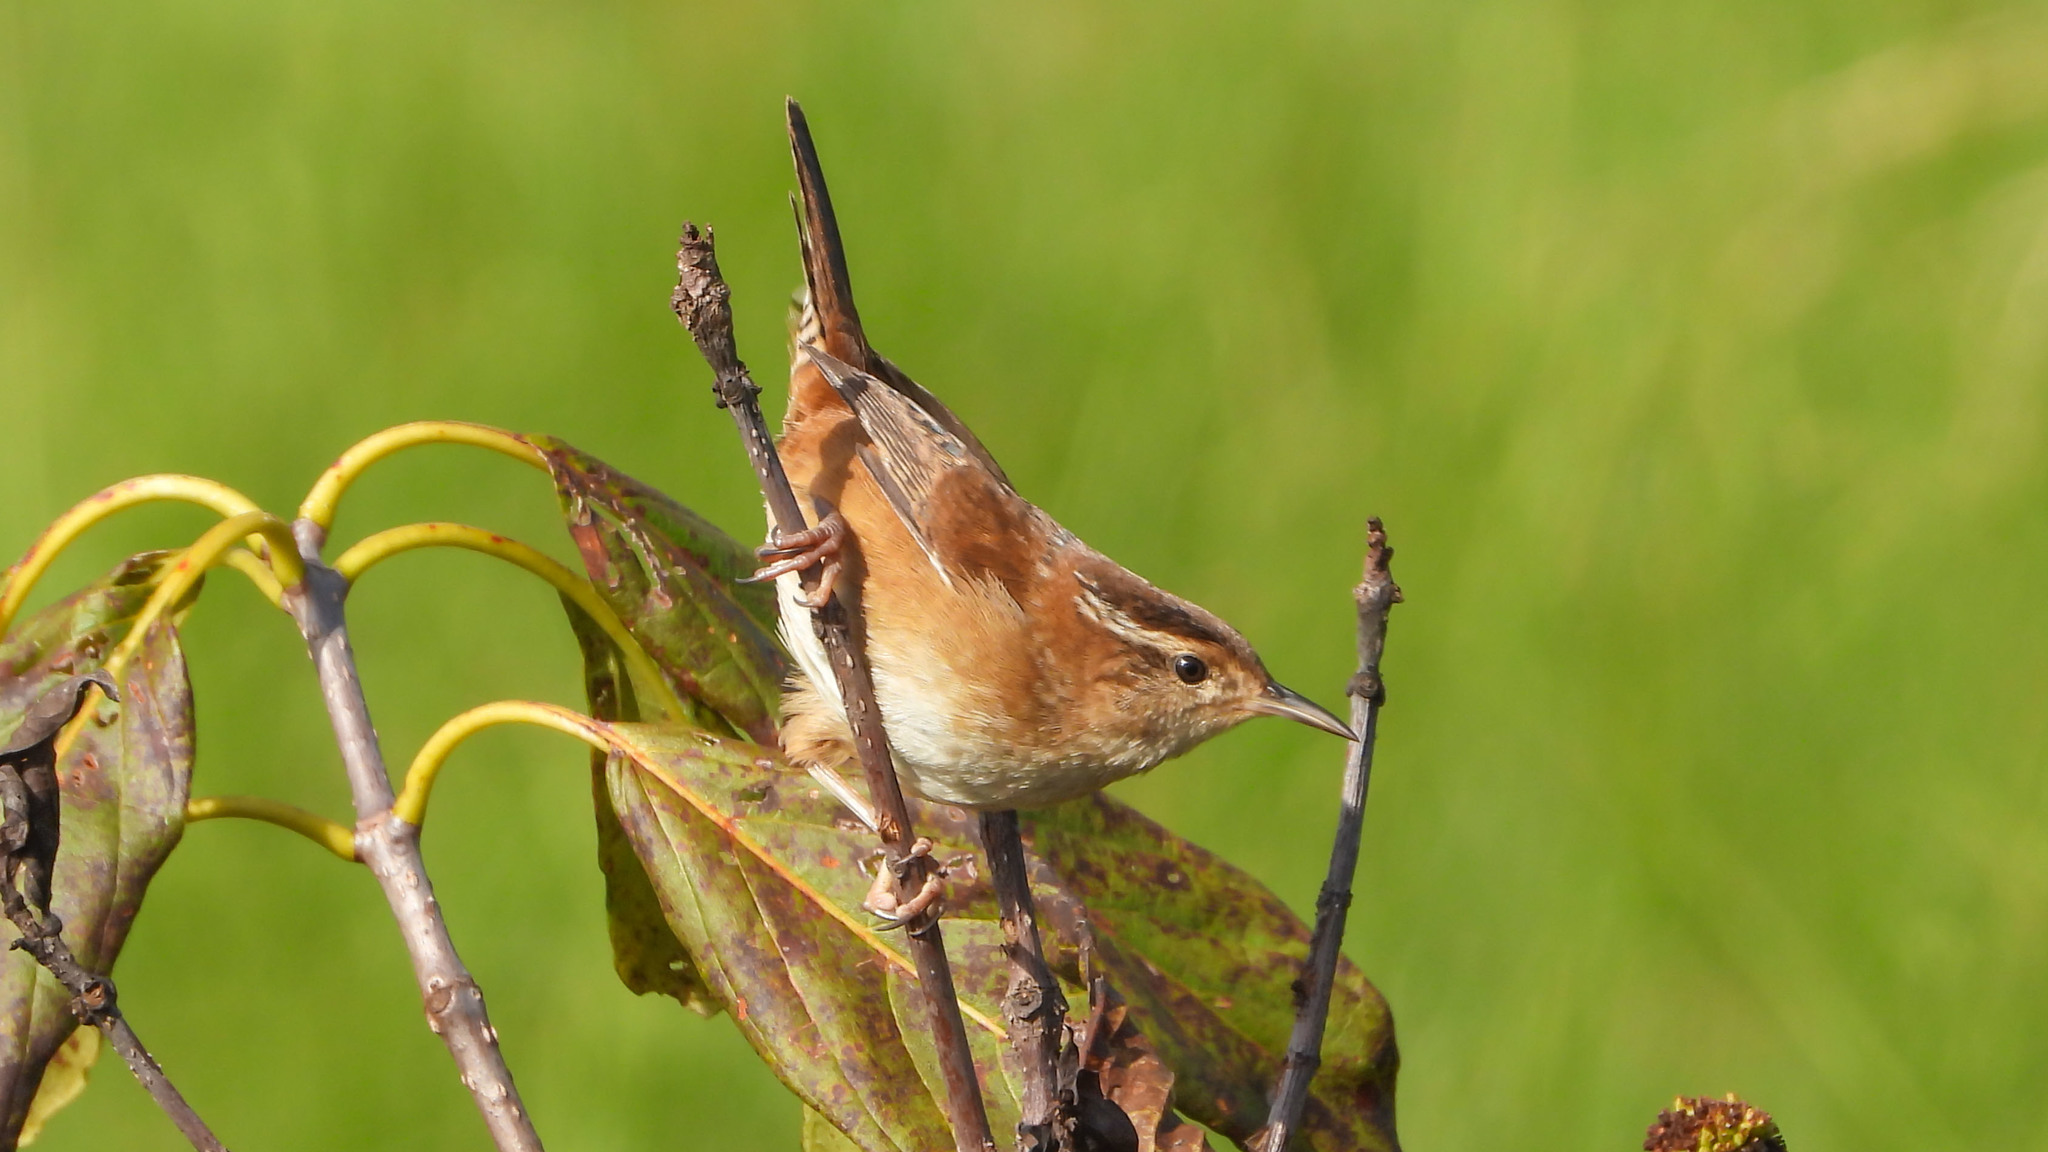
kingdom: Animalia
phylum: Chordata
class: Aves
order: Passeriformes
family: Troglodytidae
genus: Cistothorus
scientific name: Cistothorus palustris
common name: Marsh wren
